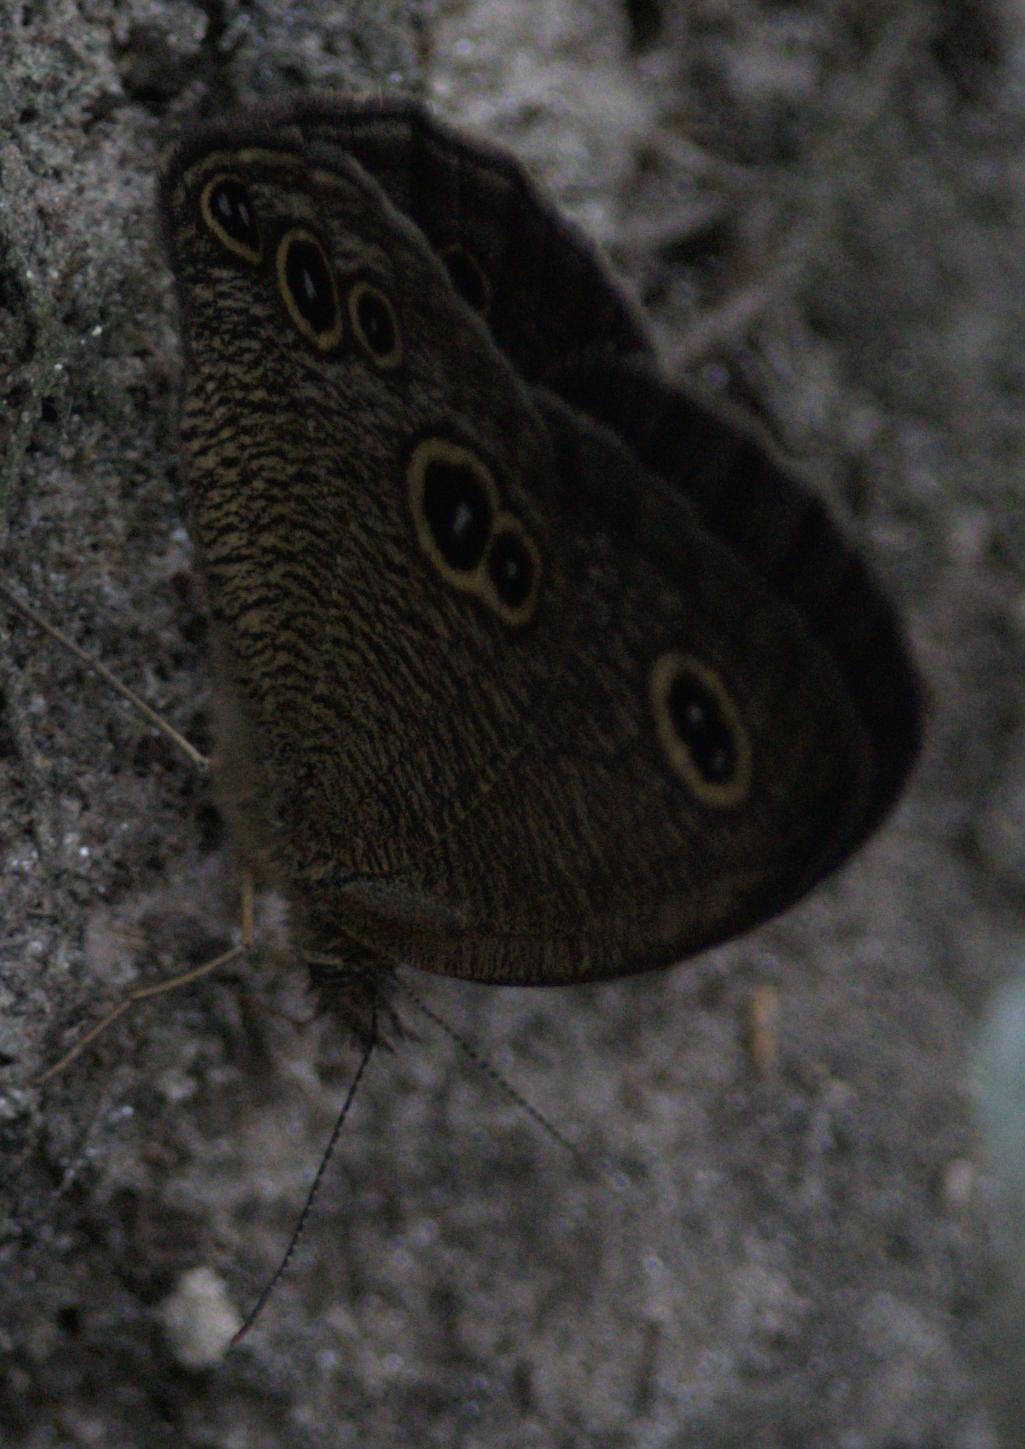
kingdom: Animalia
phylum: Arthropoda
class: Insecta
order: Lepidoptera
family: Nymphalidae
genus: Ypthima
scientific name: Ypthima nikaea
